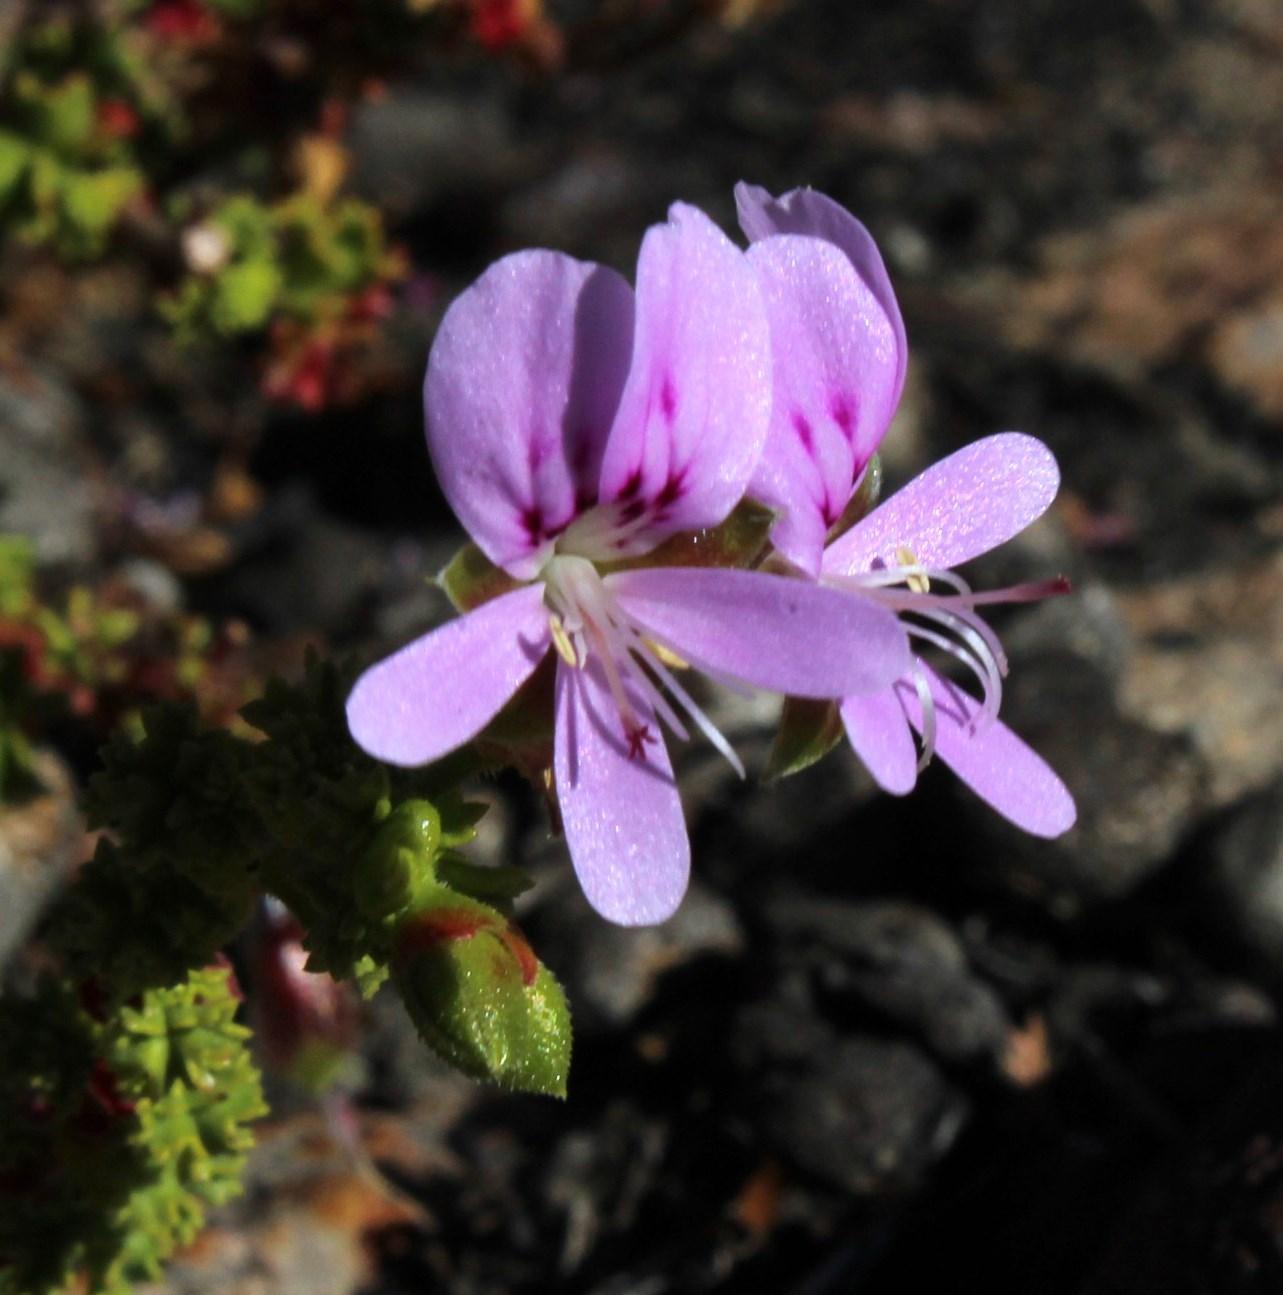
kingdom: Plantae
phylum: Tracheophyta
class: Magnoliopsida
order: Geraniales
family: Geraniaceae
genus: Pelargonium
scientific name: Pelargonium crispum
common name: Crisped-leaf pelargonium
